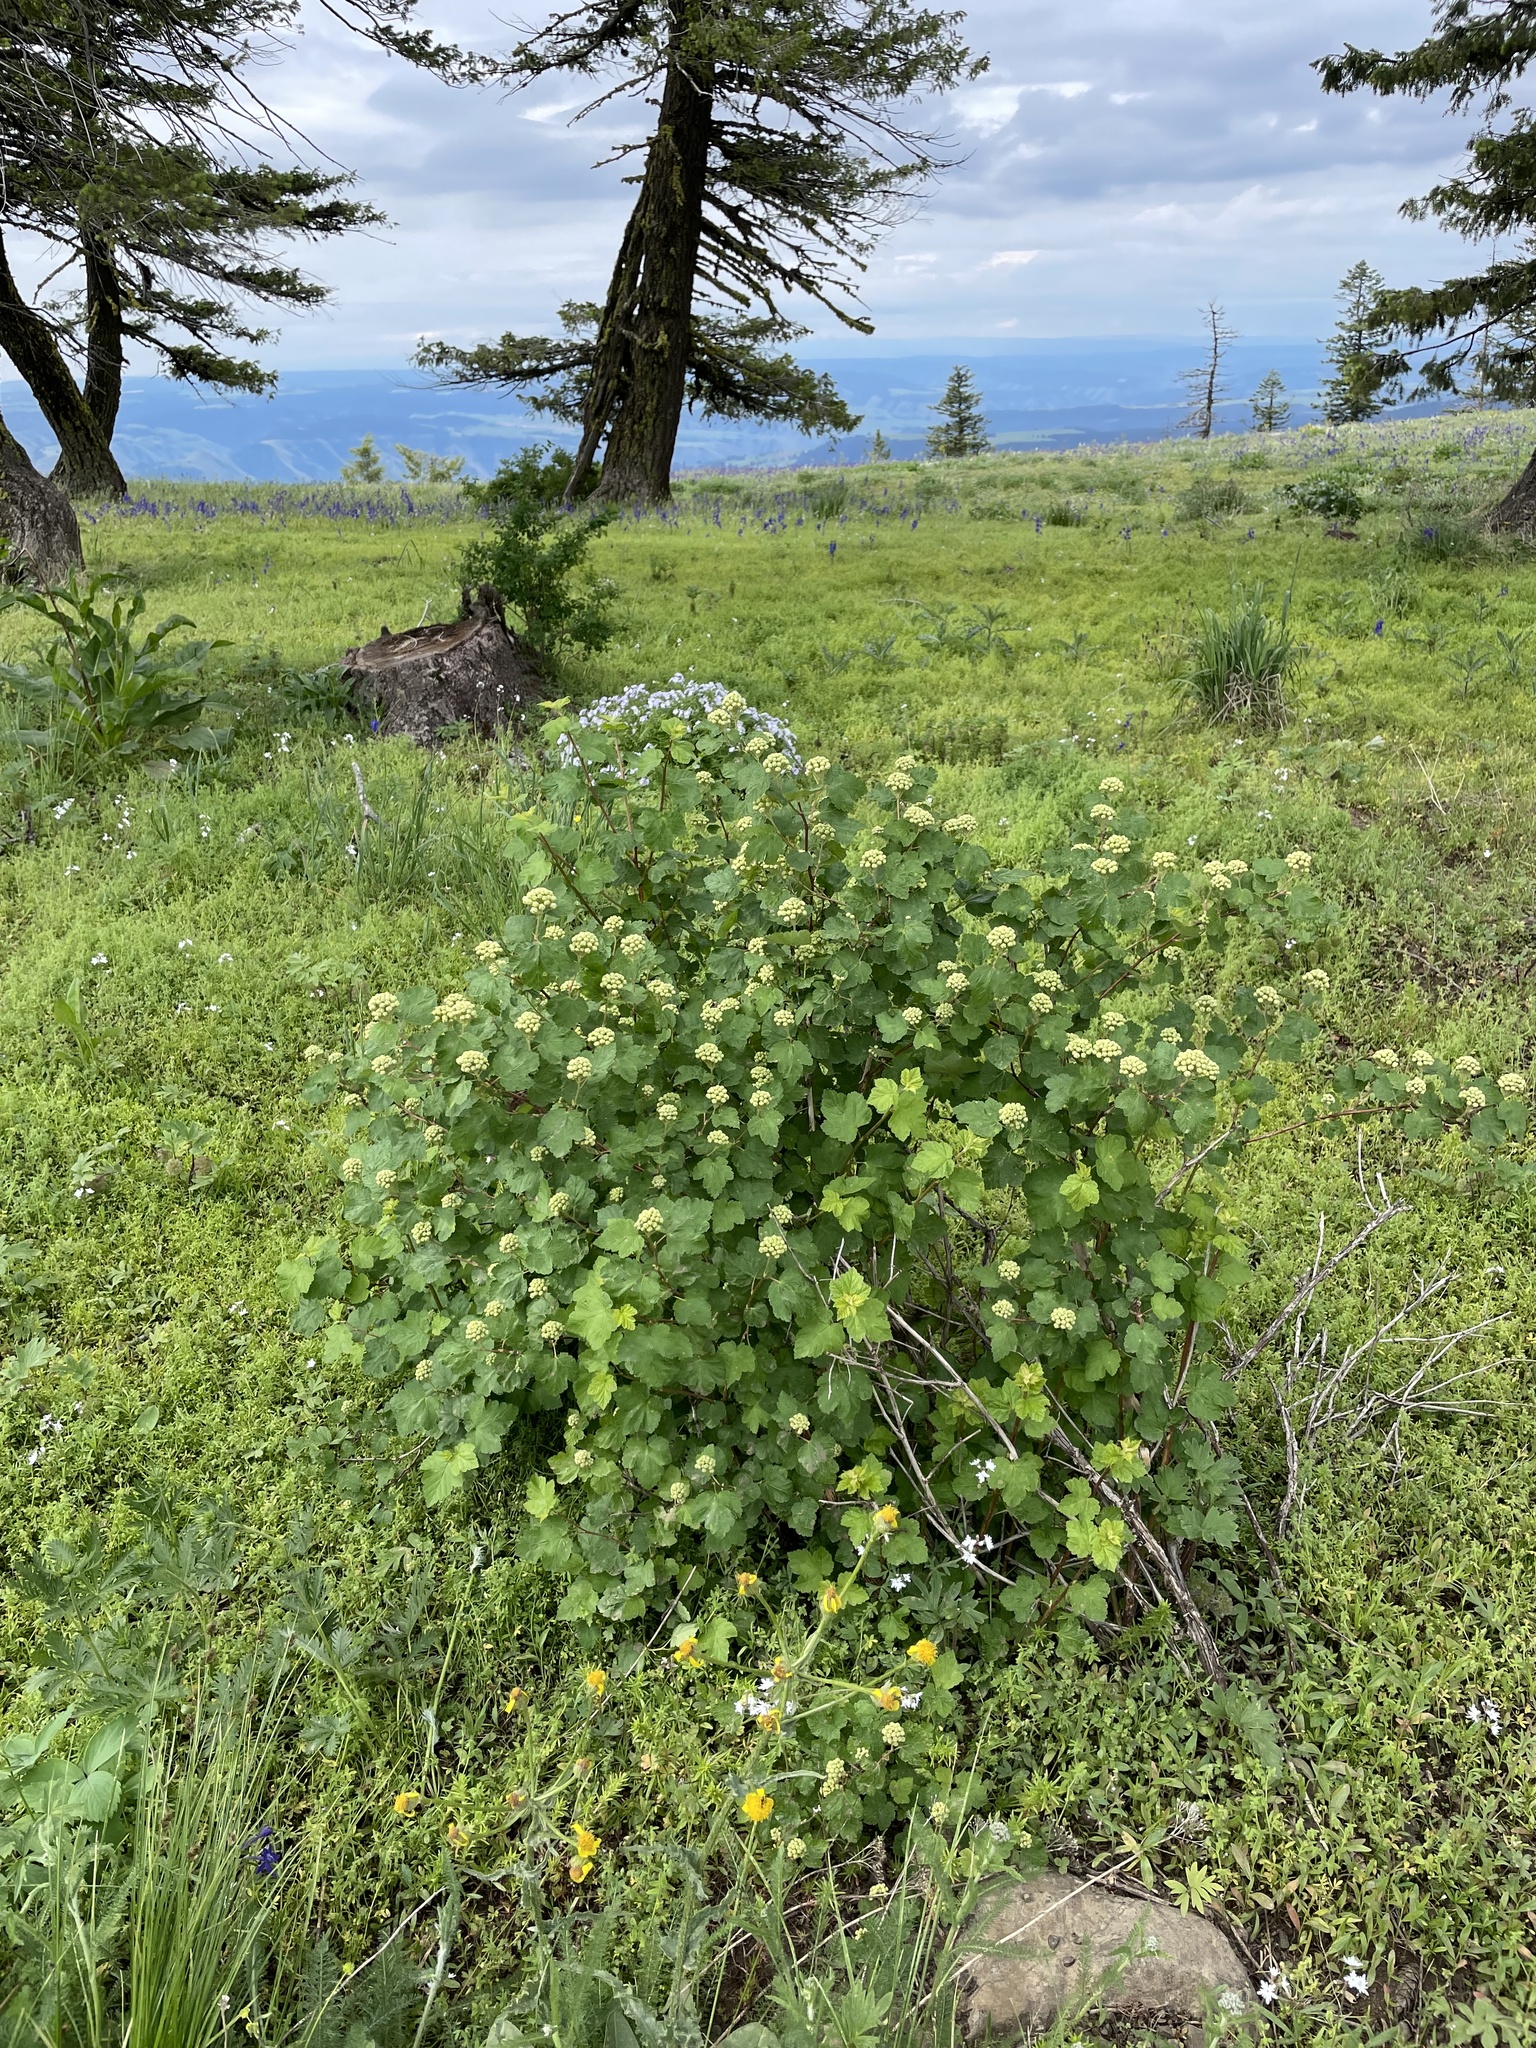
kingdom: Plantae
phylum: Tracheophyta
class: Magnoliopsida
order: Rosales
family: Rosaceae
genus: Physocarpus
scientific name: Physocarpus malvaceus
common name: Mallow ninebark
